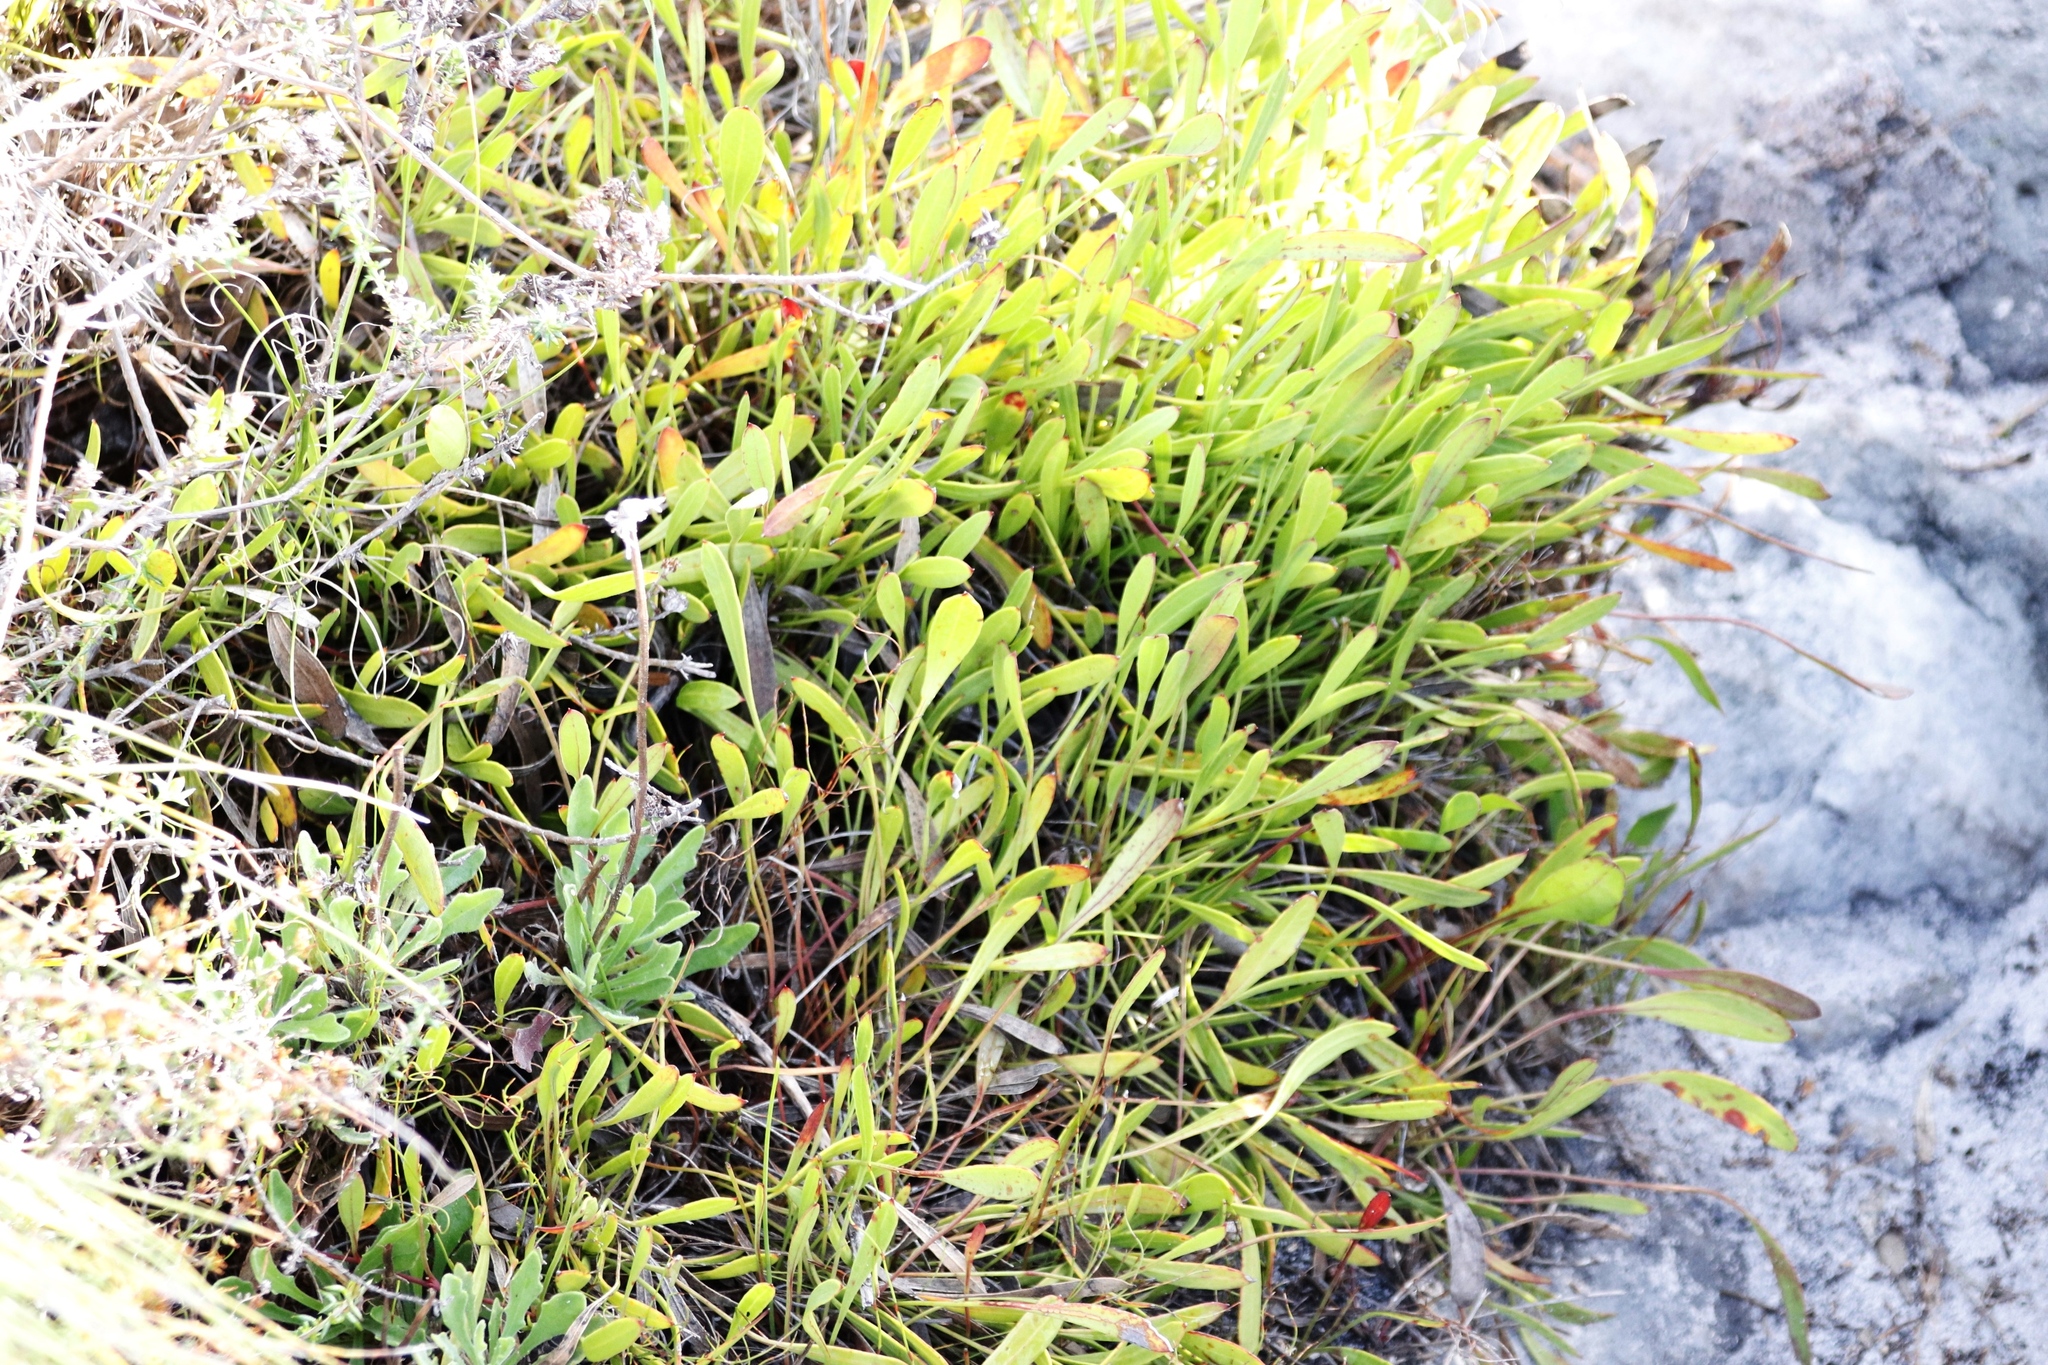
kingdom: Plantae
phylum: Tracheophyta
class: Magnoliopsida
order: Apiales
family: Apiaceae
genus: Centella
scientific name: Centella glabrata
